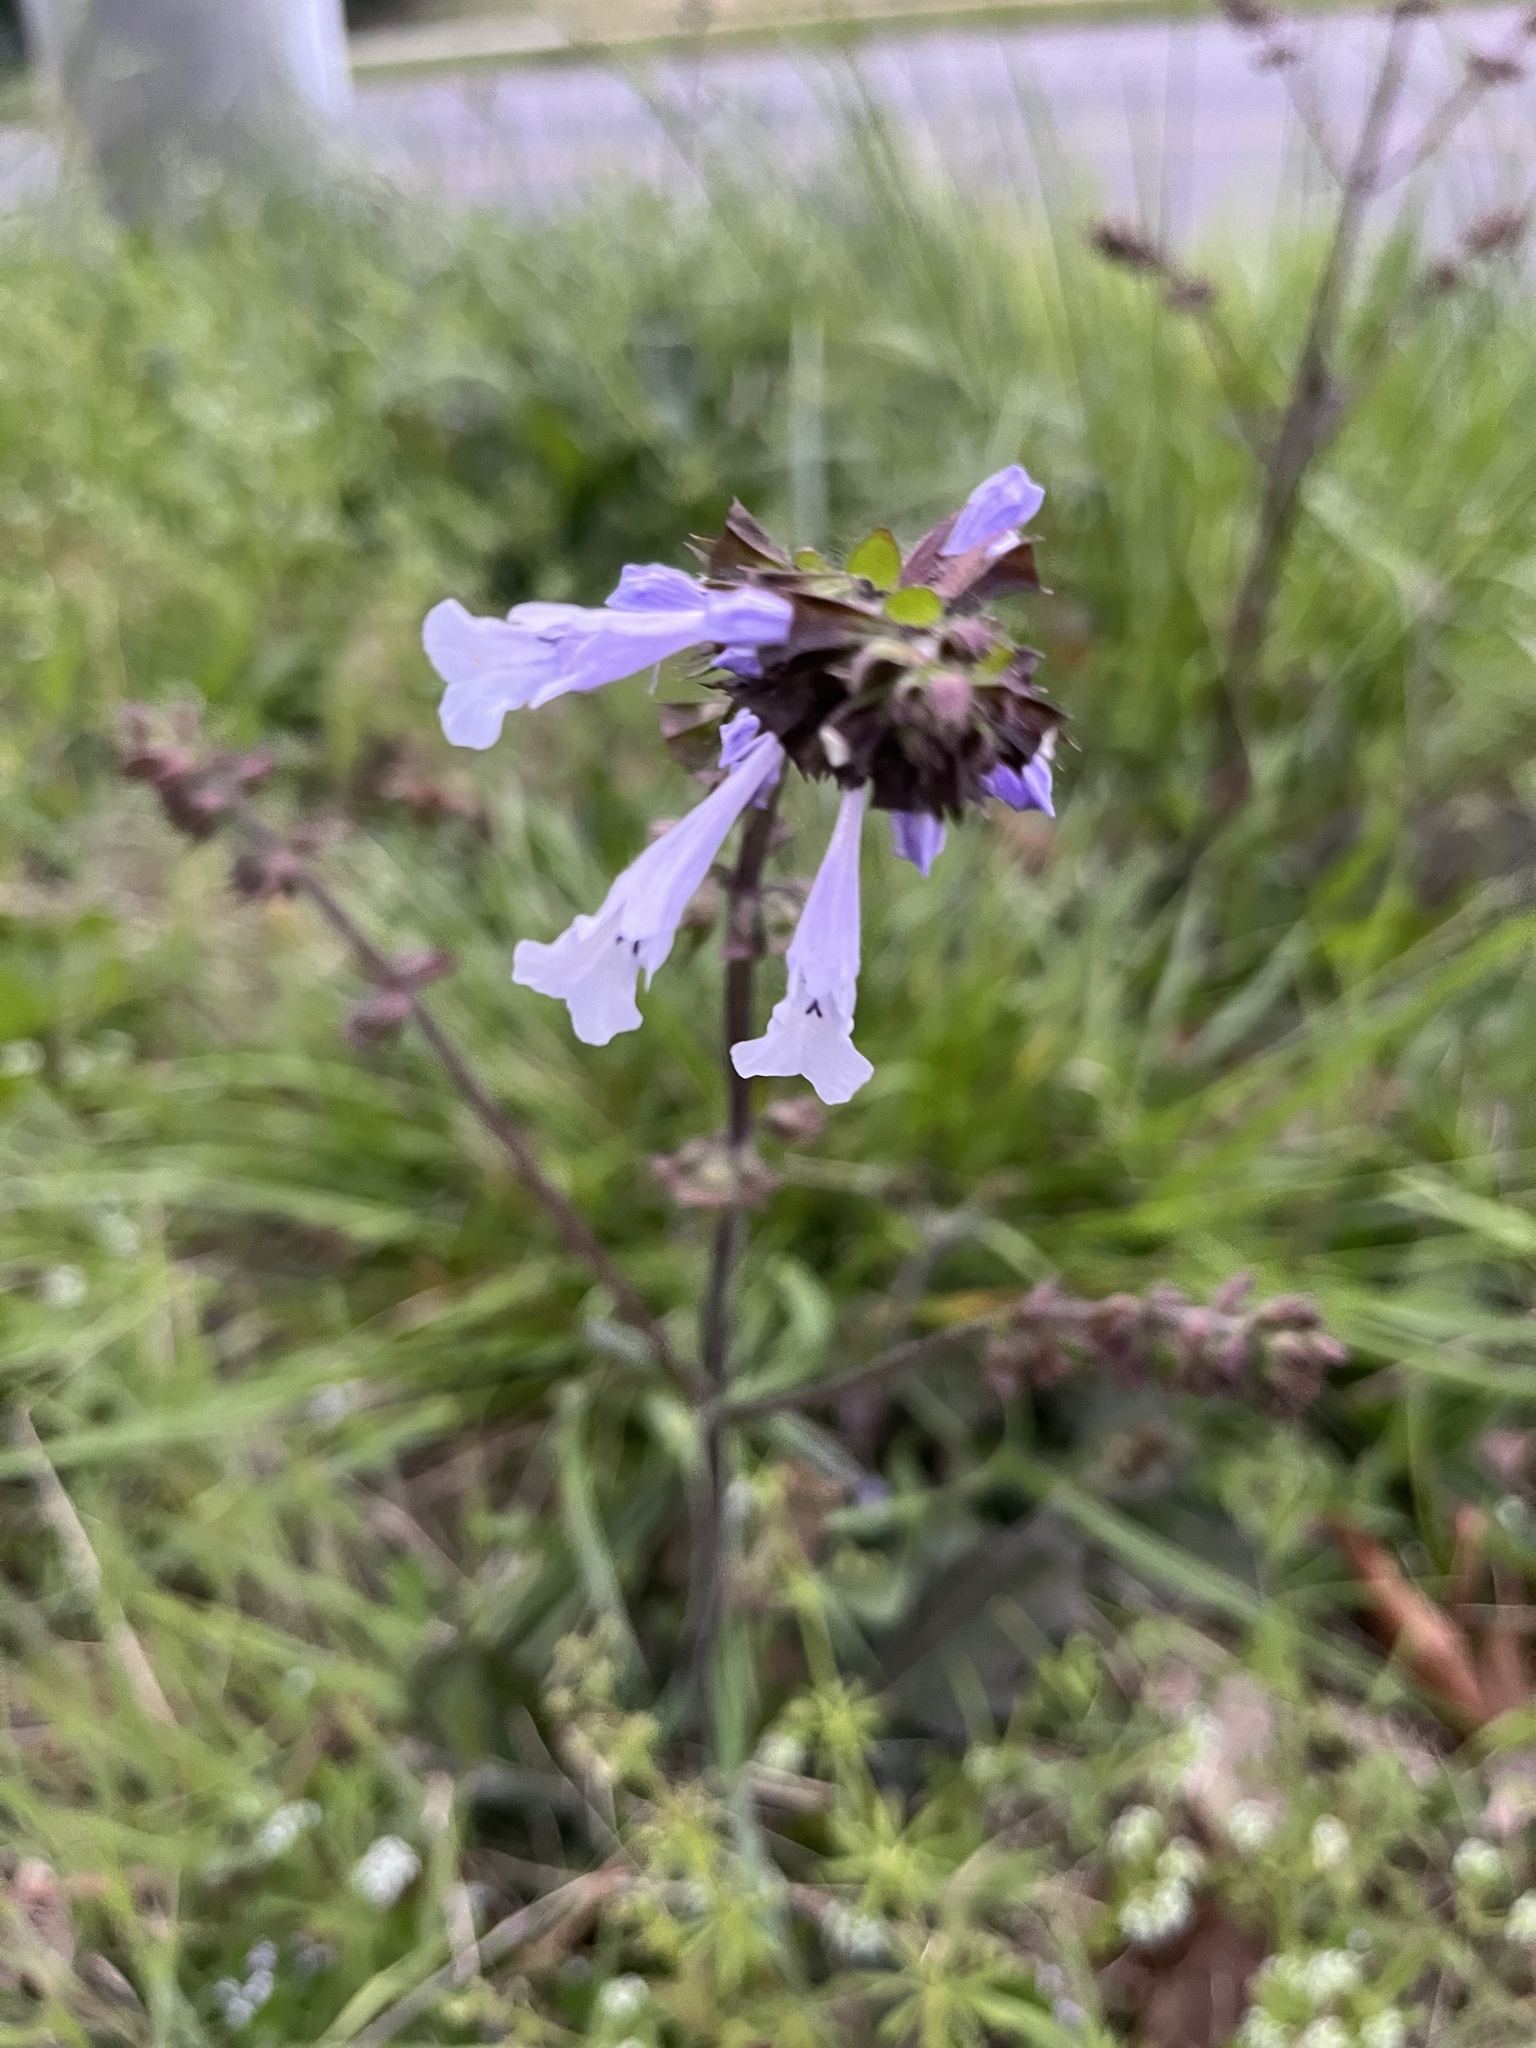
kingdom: Plantae
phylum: Tracheophyta
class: Magnoliopsida
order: Lamiales
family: Lamiaceae
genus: Salvia
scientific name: Salvia lyrata
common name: Cancerweed
